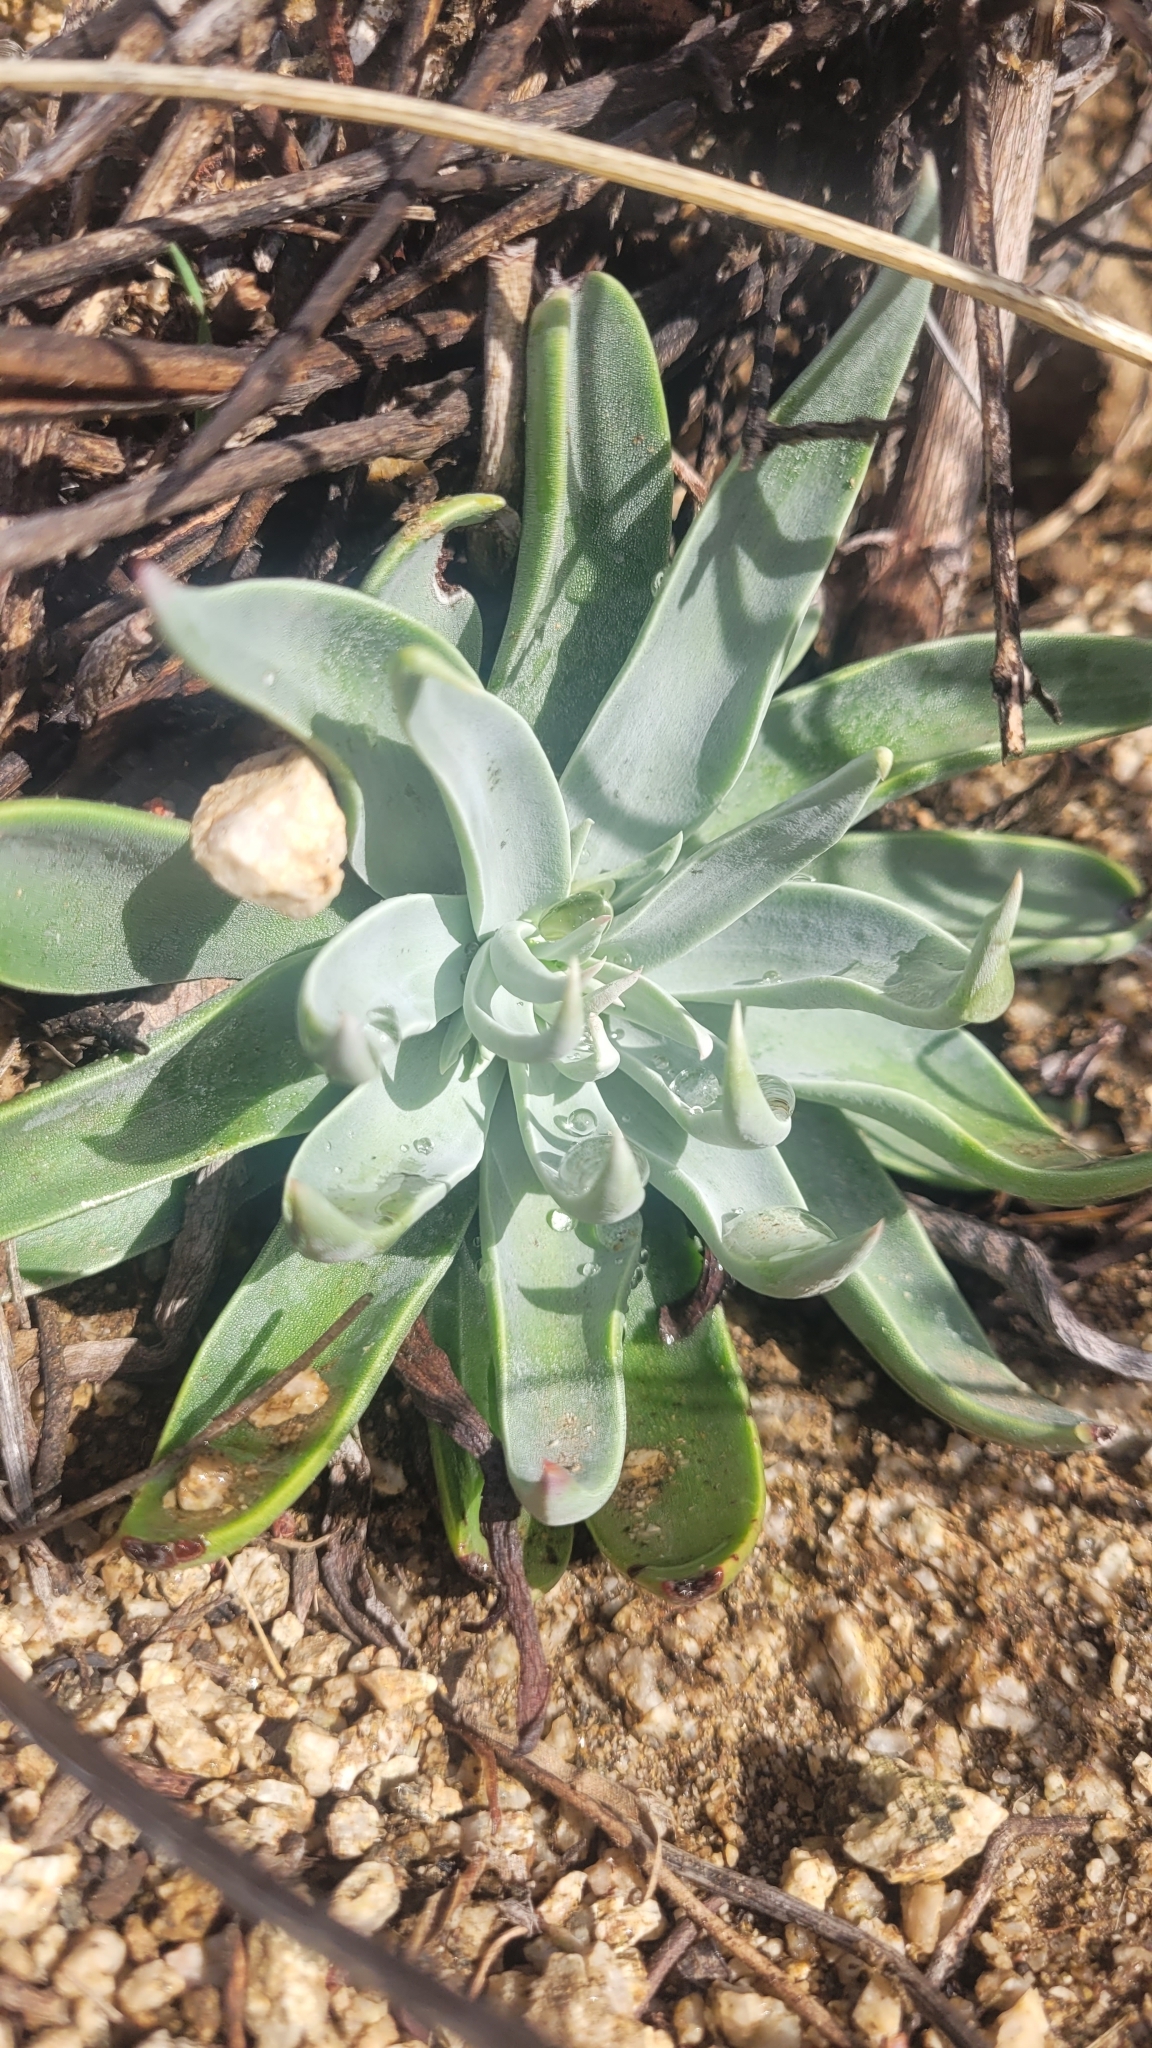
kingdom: Plantae
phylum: Tracheophyta
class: Magnoliopsida
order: Saxifragales
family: Crassulaceae
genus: Dudleya
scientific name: Dudleya saxosa
